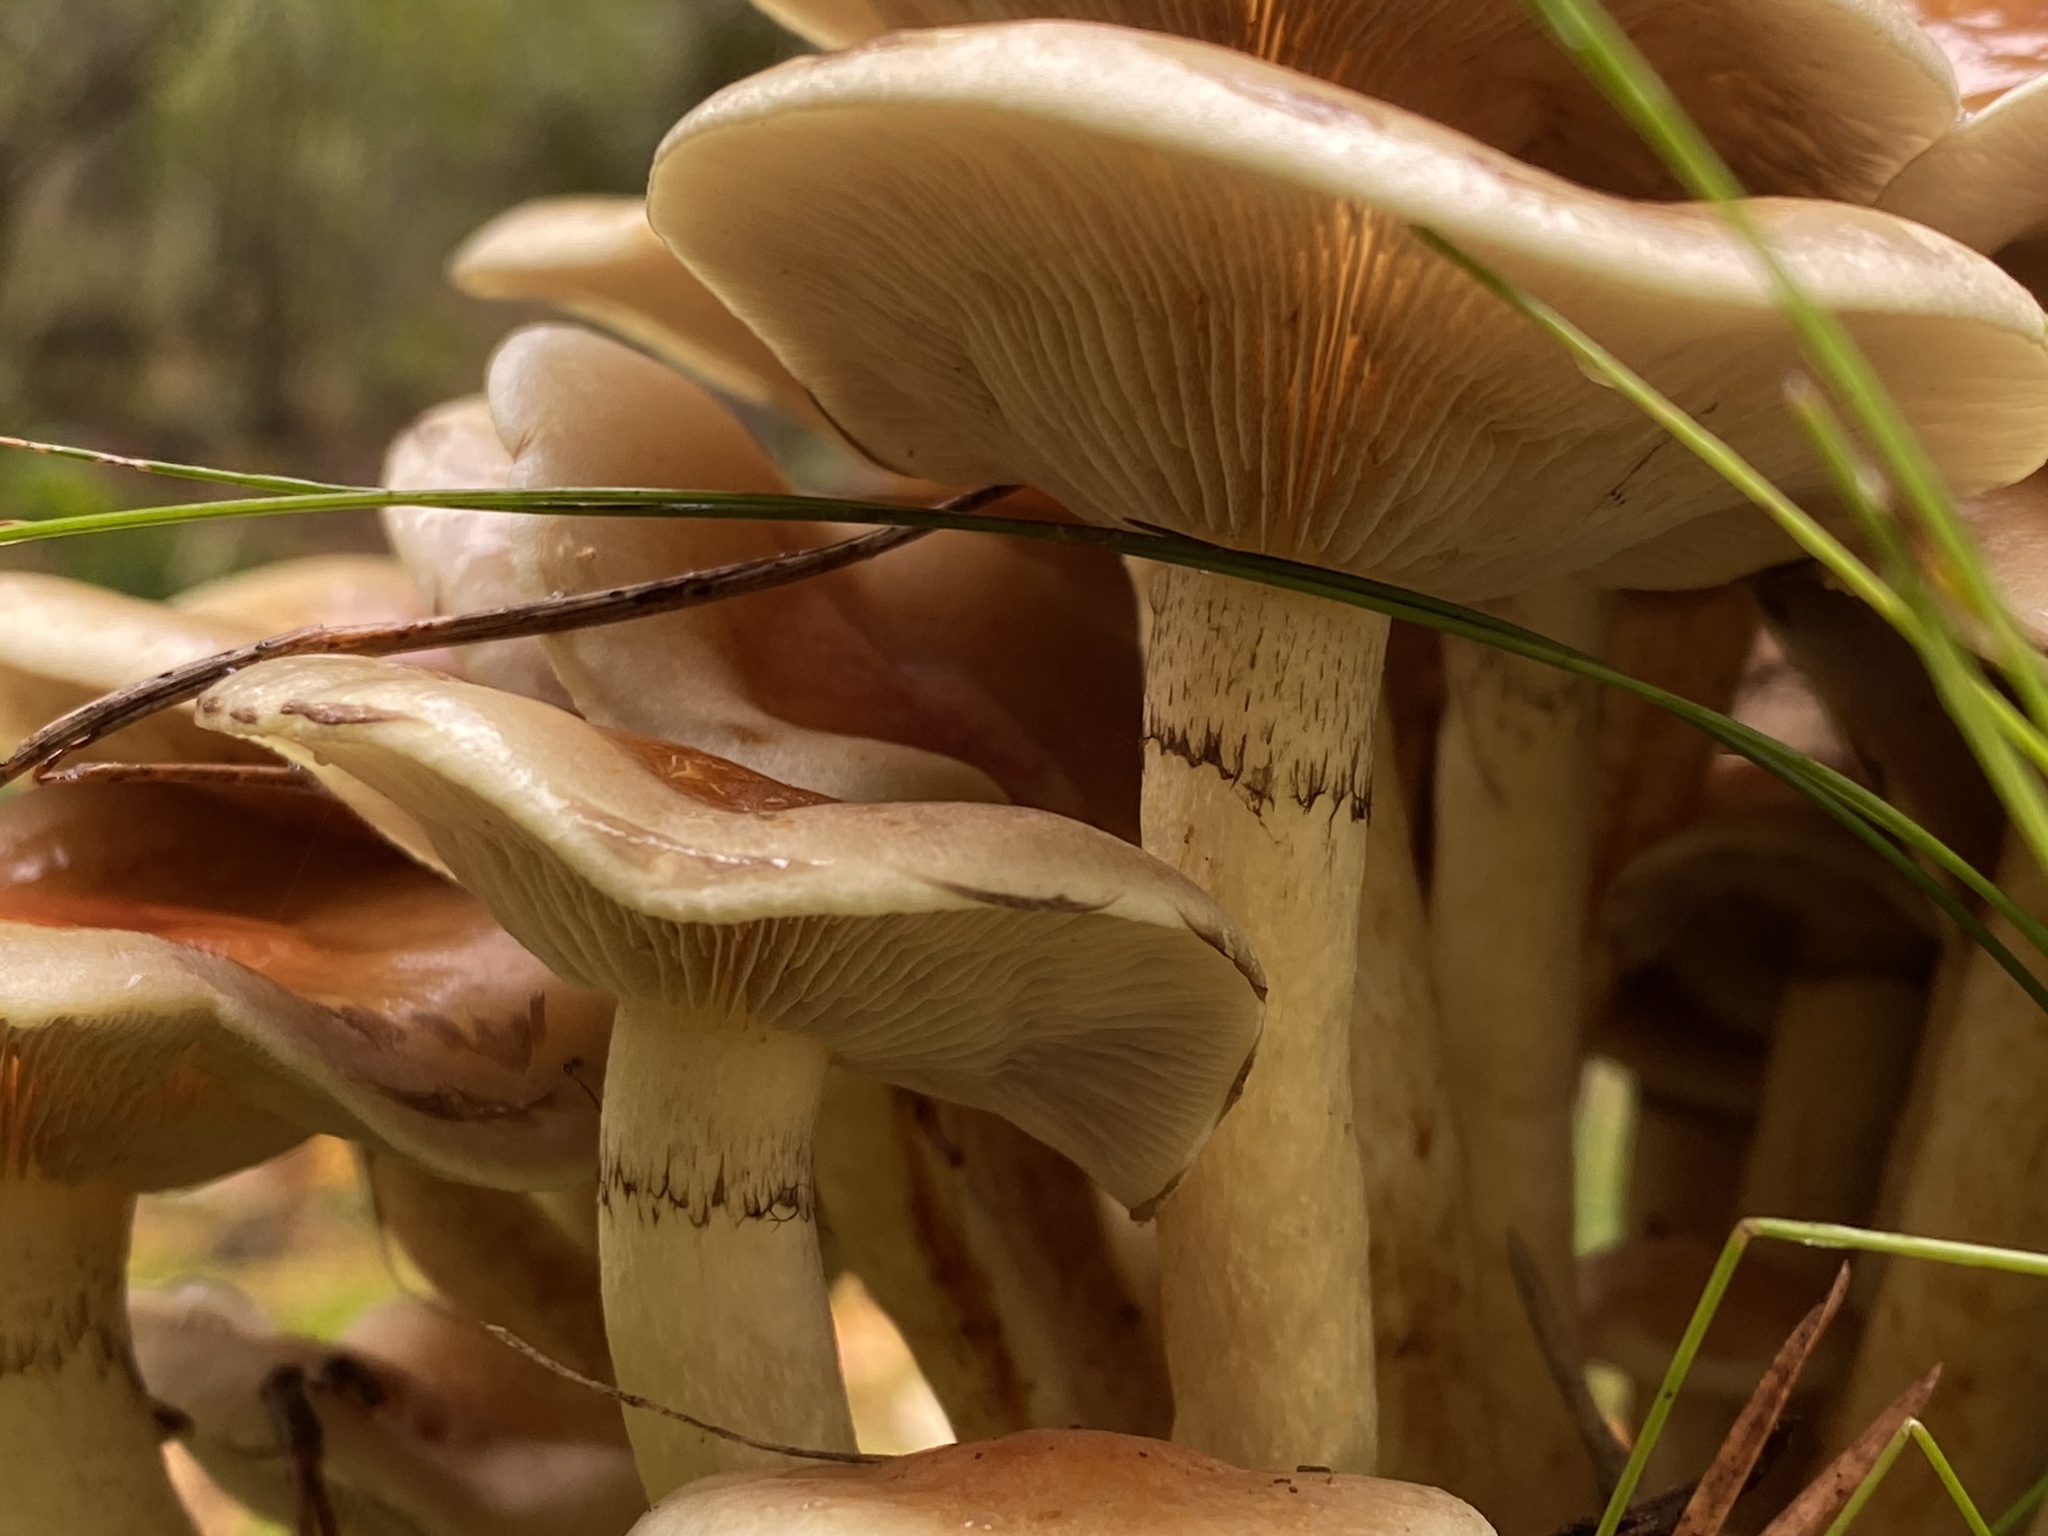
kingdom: Fungi
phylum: Basidiomycota
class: Agaricomycetes
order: Agaricales
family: Strophariaceae
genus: Hypholoma
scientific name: Hypholoma fasciculare
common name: Sulphur tuft
